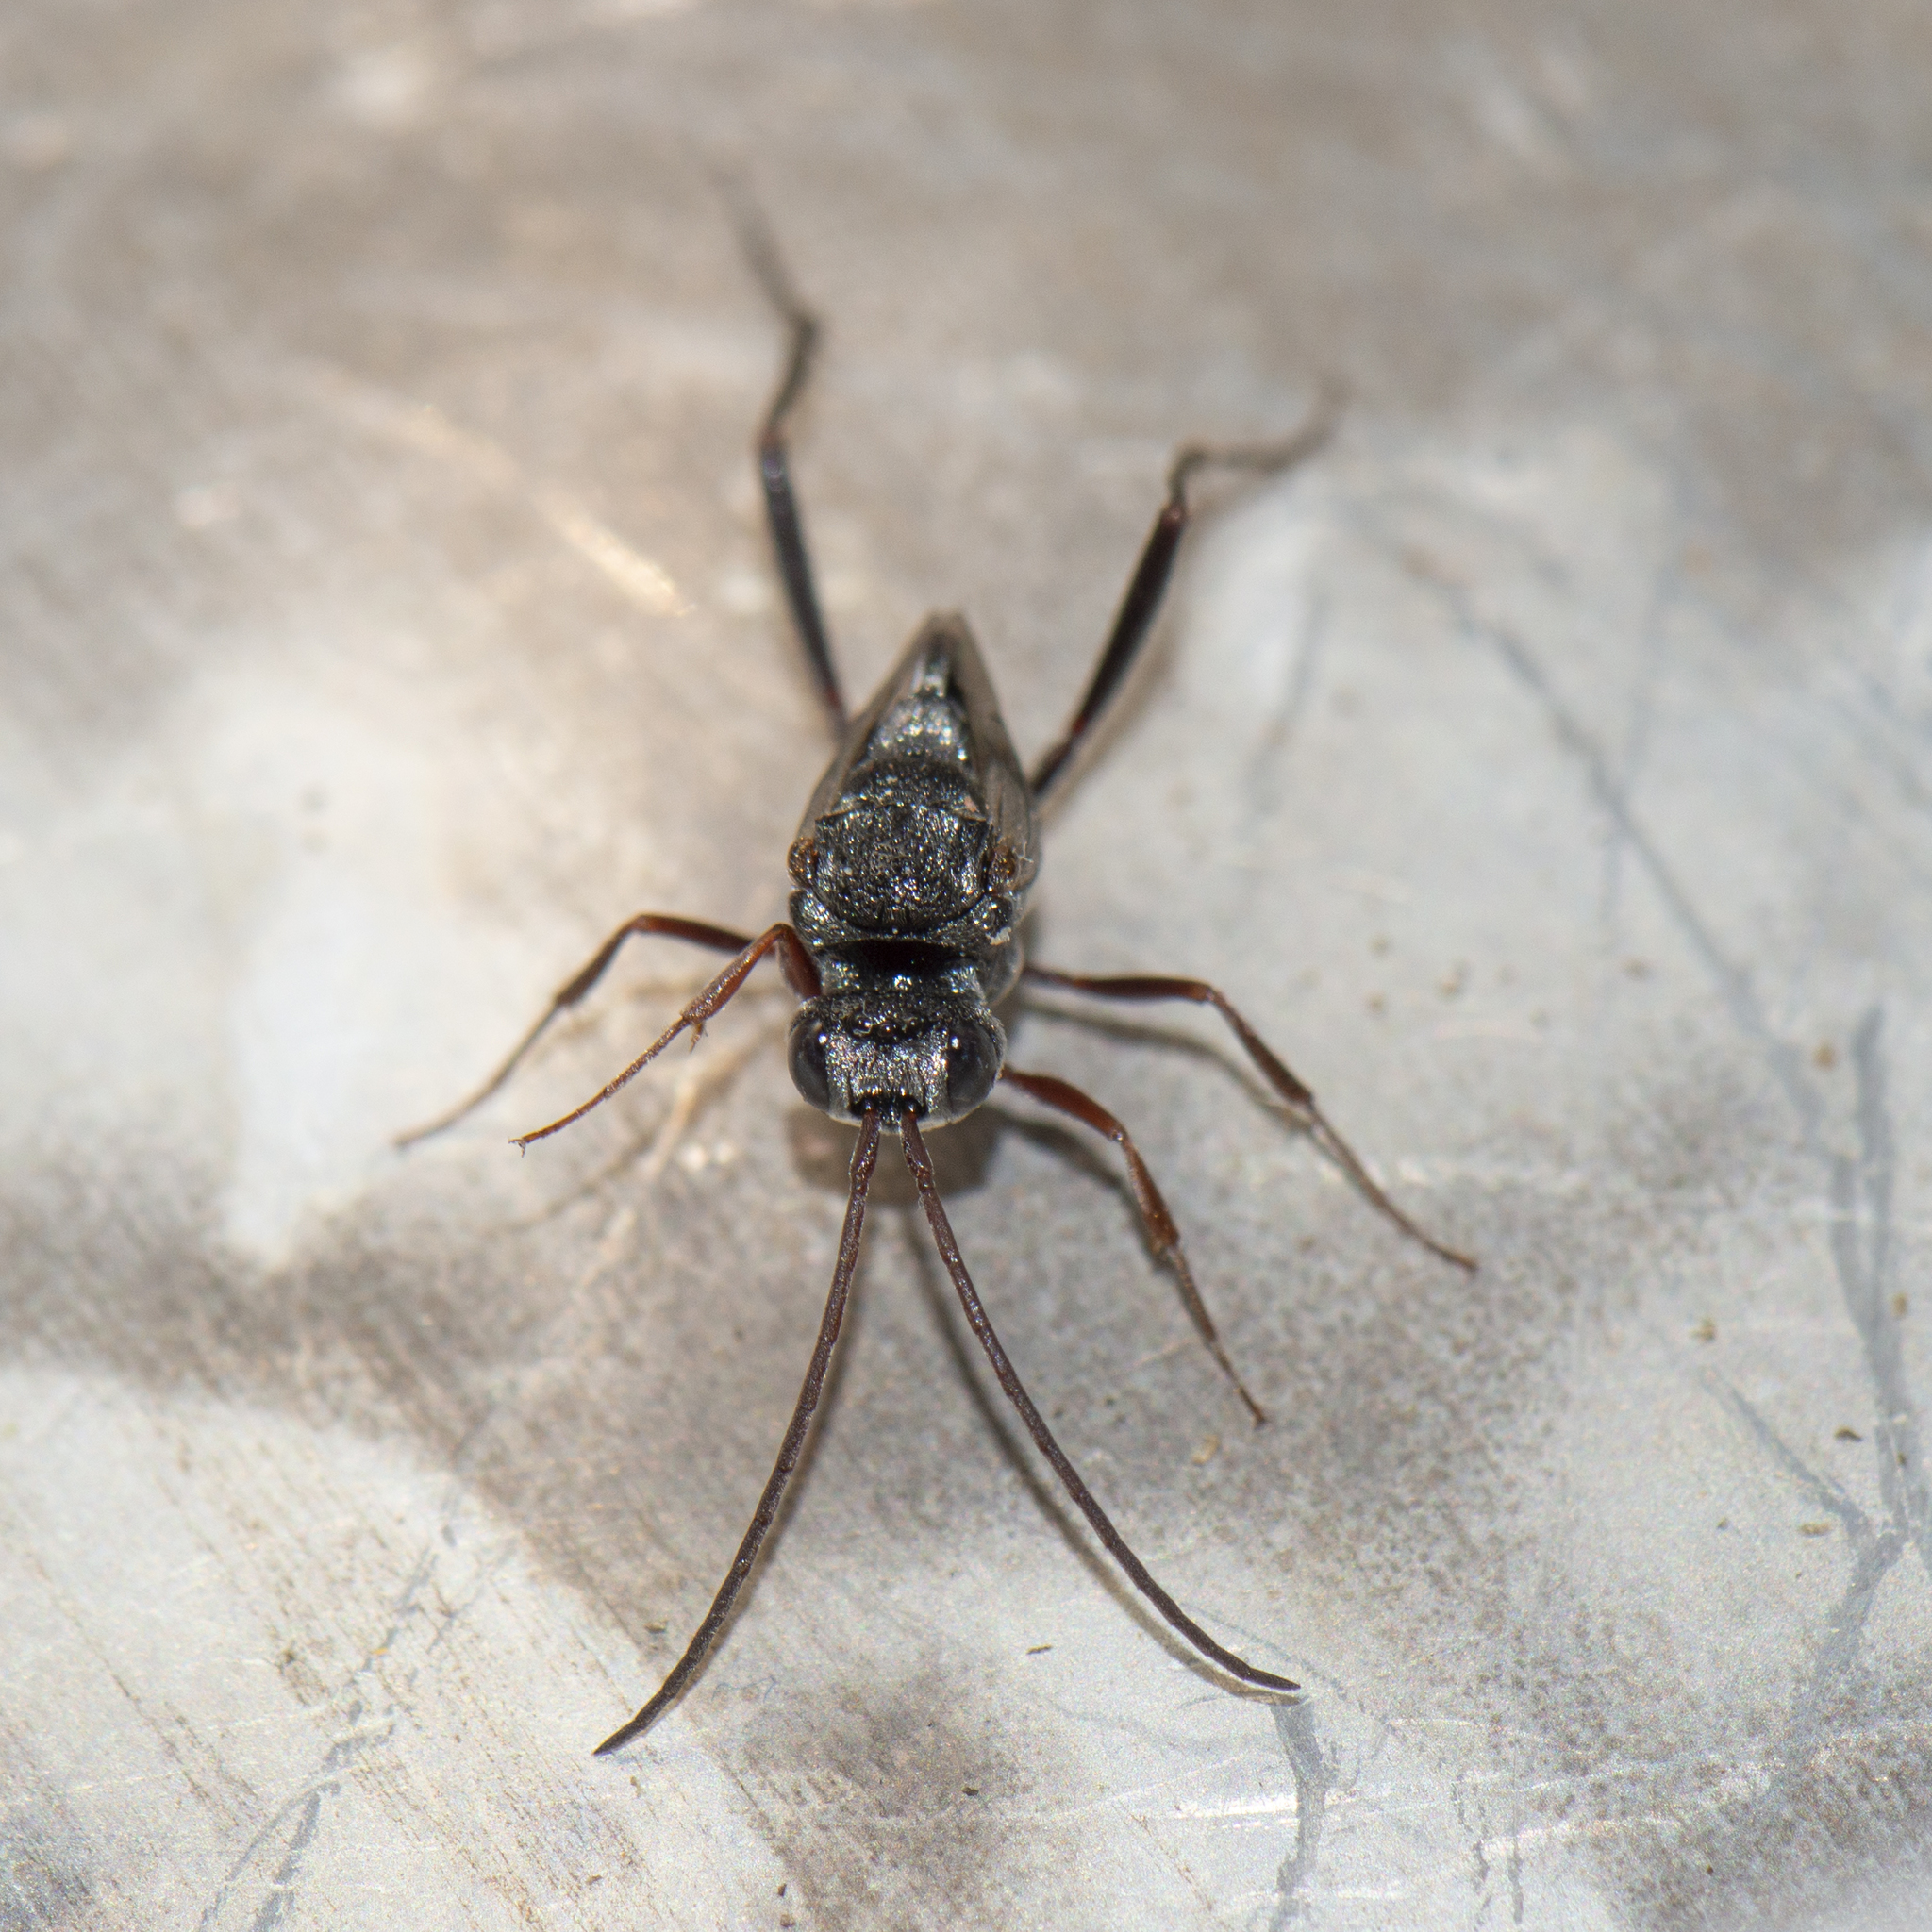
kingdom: Animalia
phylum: Arthropoda
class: Insecta
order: Hymenoptera
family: Evaniidae
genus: Prosevania
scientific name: Prosevania fuscipes
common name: Ensign wasp
